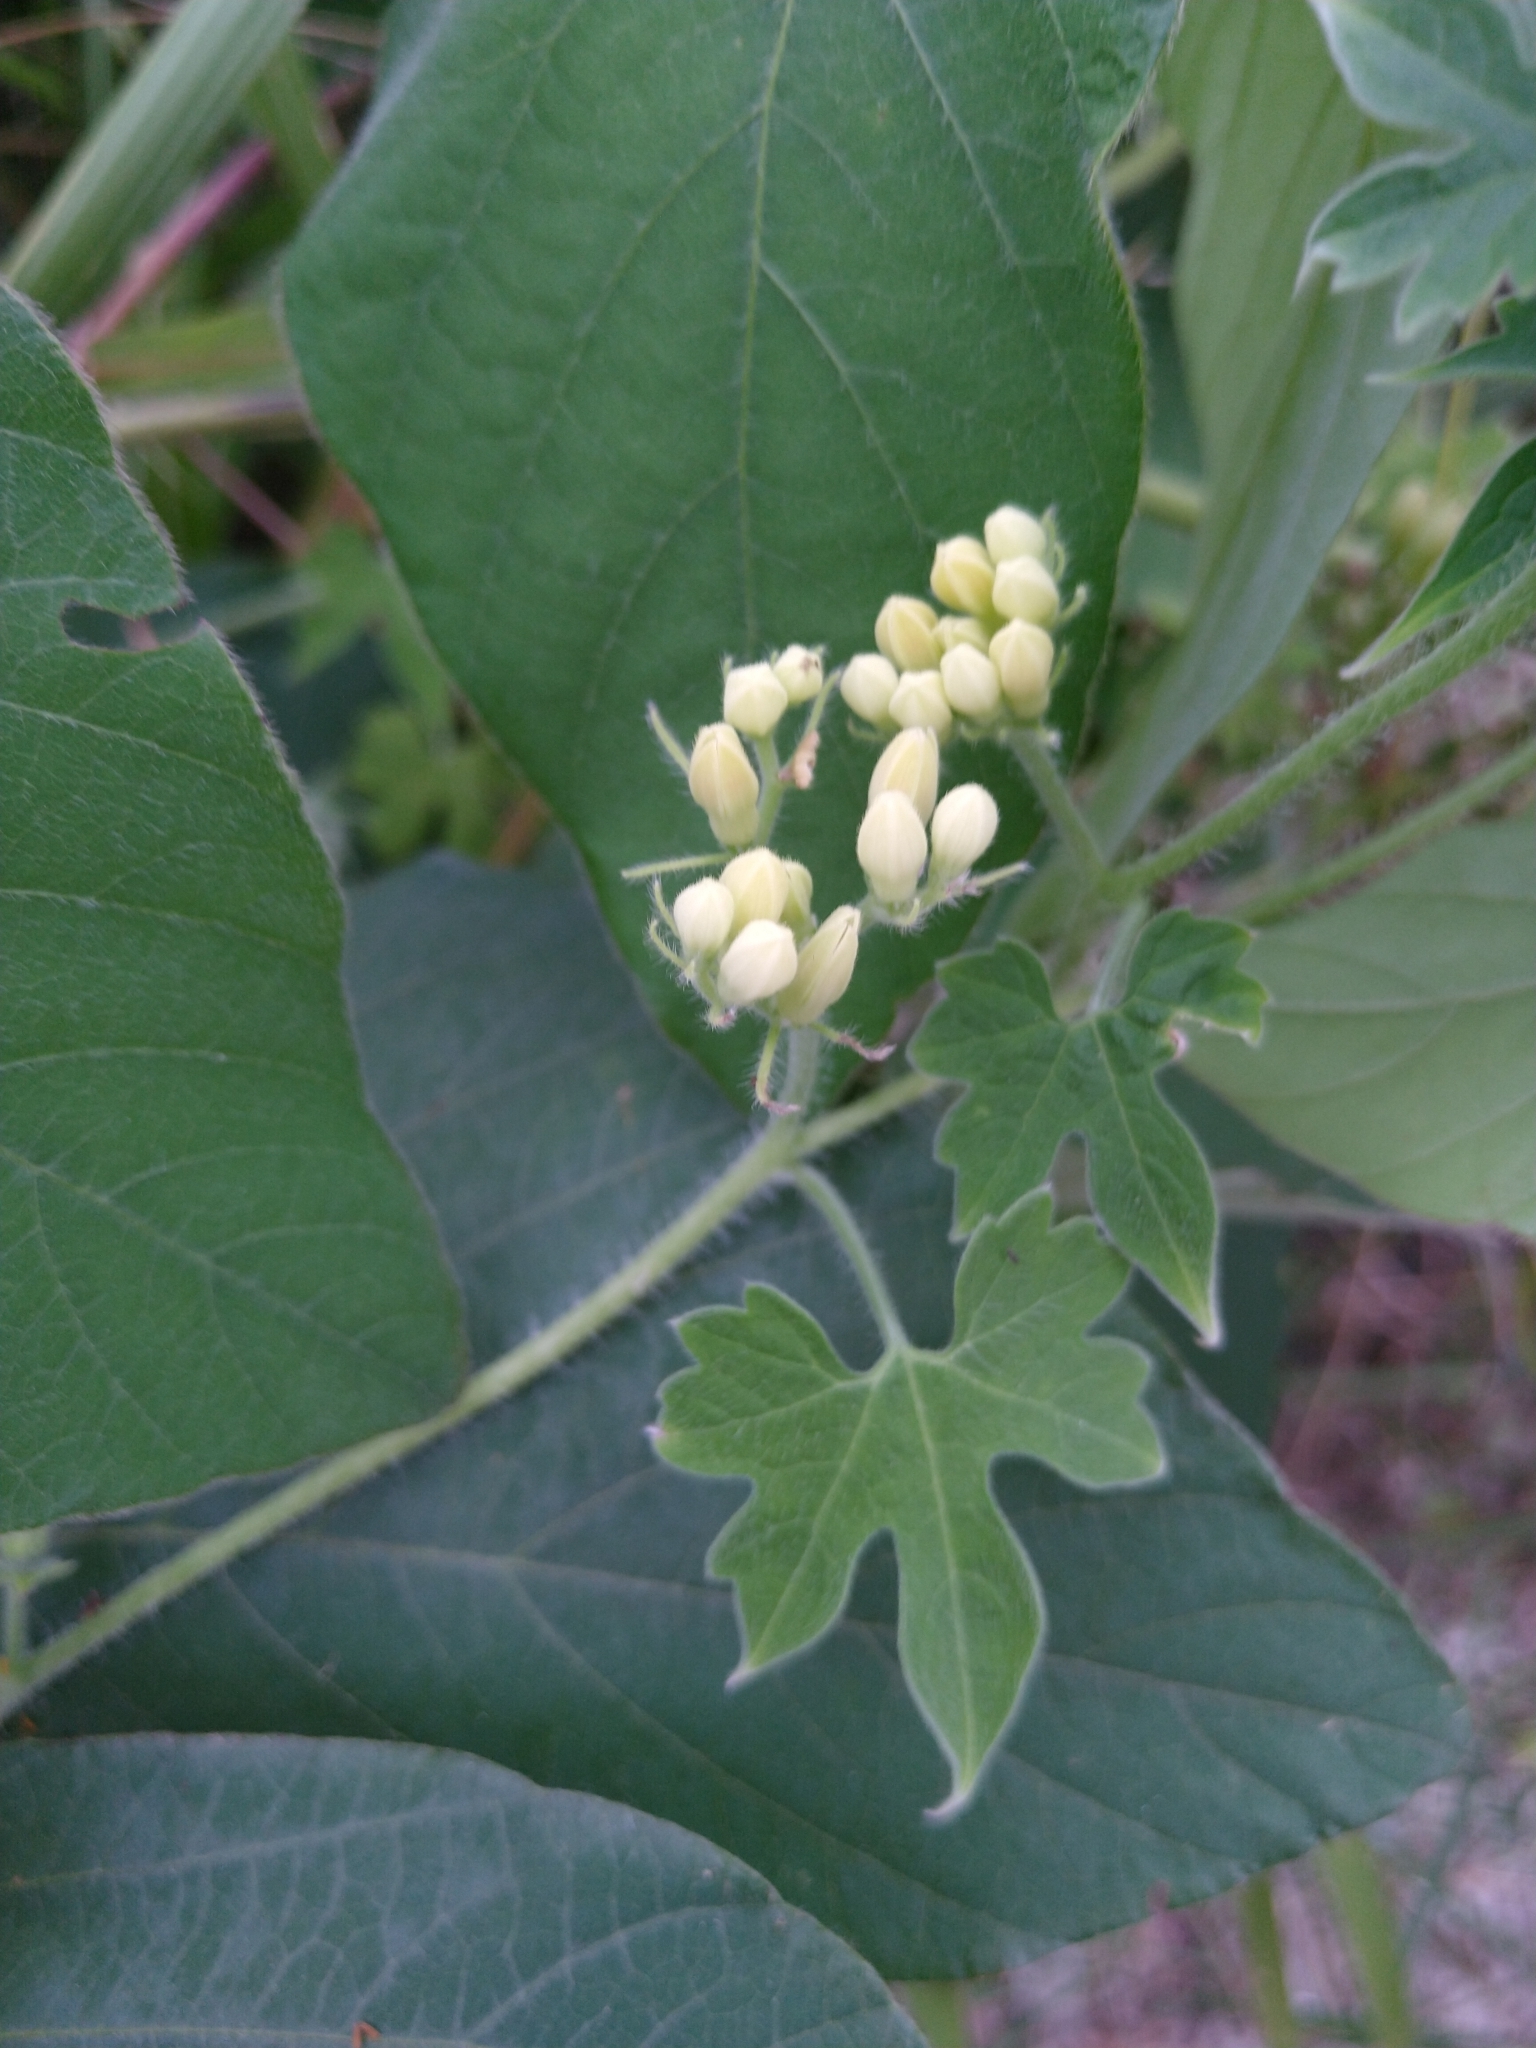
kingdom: Plantae
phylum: Tracheophyta
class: Magnoliopsida
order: Cornales
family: Loasaceae
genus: Gronovia
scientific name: Gronovia scandens
